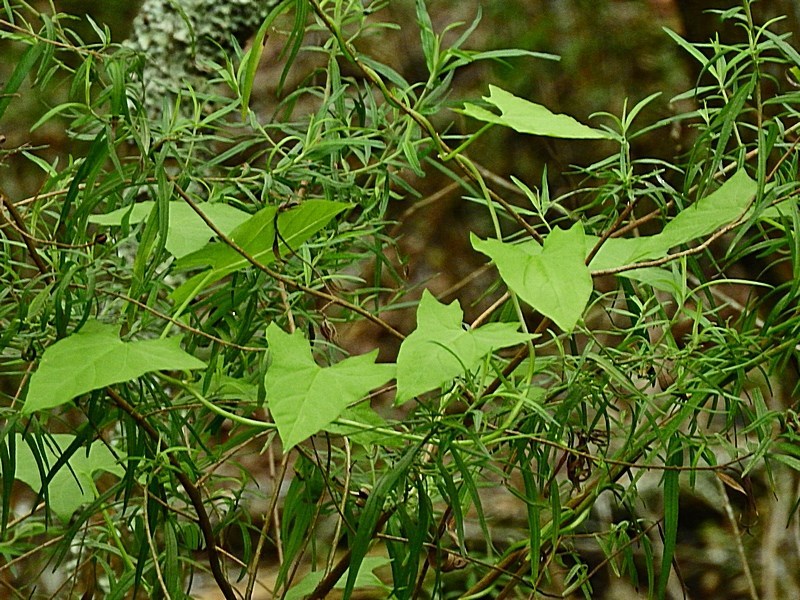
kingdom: Plantae
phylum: Tracheophyta
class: Magnoliopsida
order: Solanales
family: Convolvulaceae
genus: Calystegia
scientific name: Calystegia marginata
